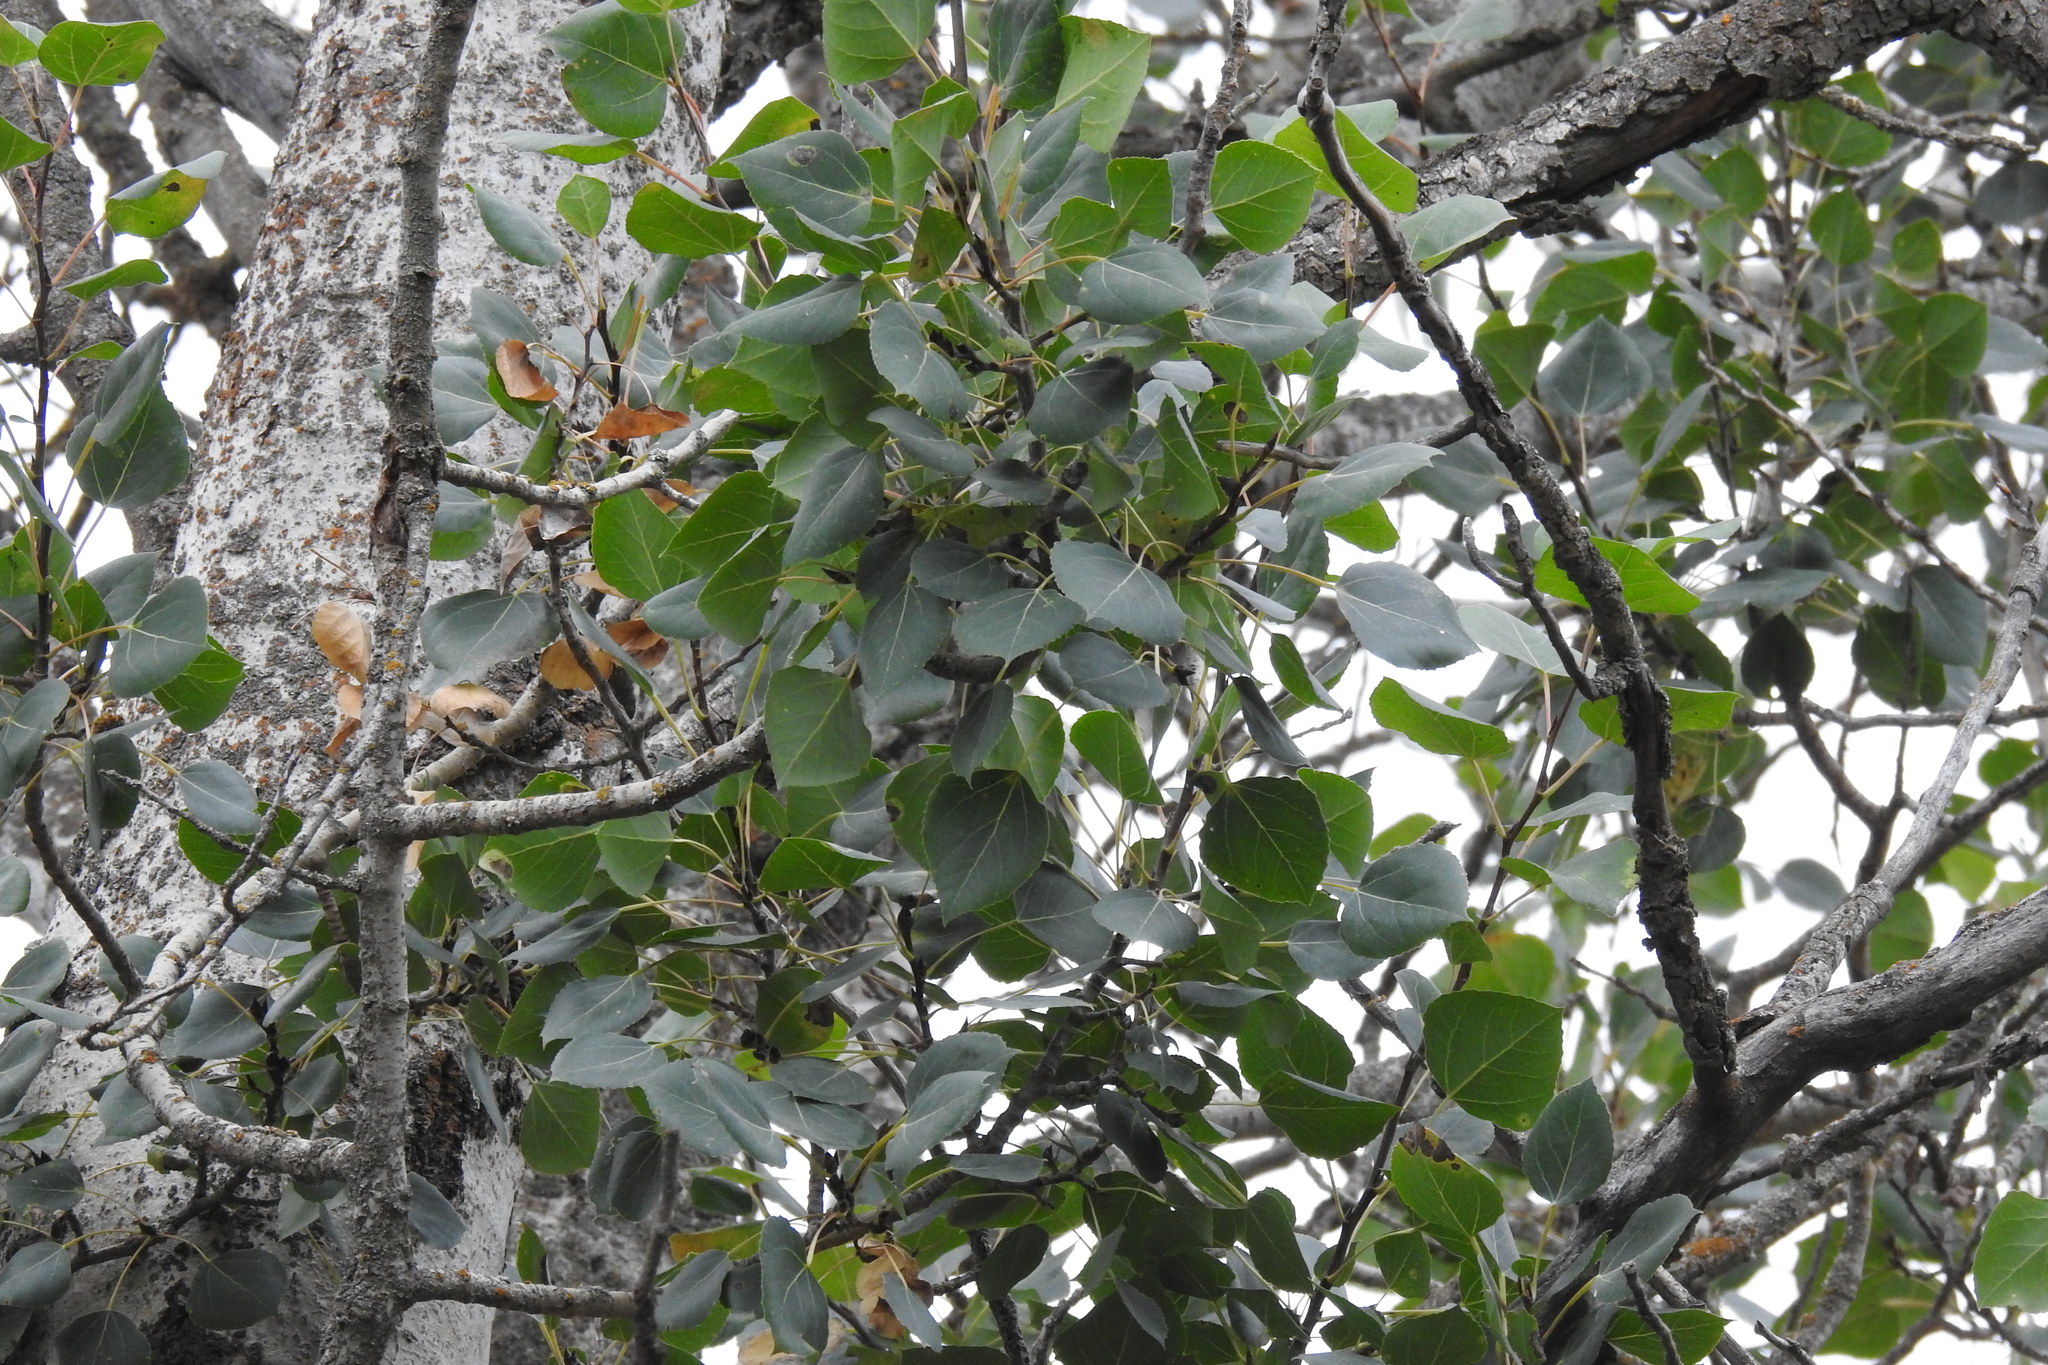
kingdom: Plantae
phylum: Tracheophyta
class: Magnoliopsida
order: Malpighiales
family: Salicaceae
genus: Populus
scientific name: Populus tremuloides
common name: Quaking aspen
